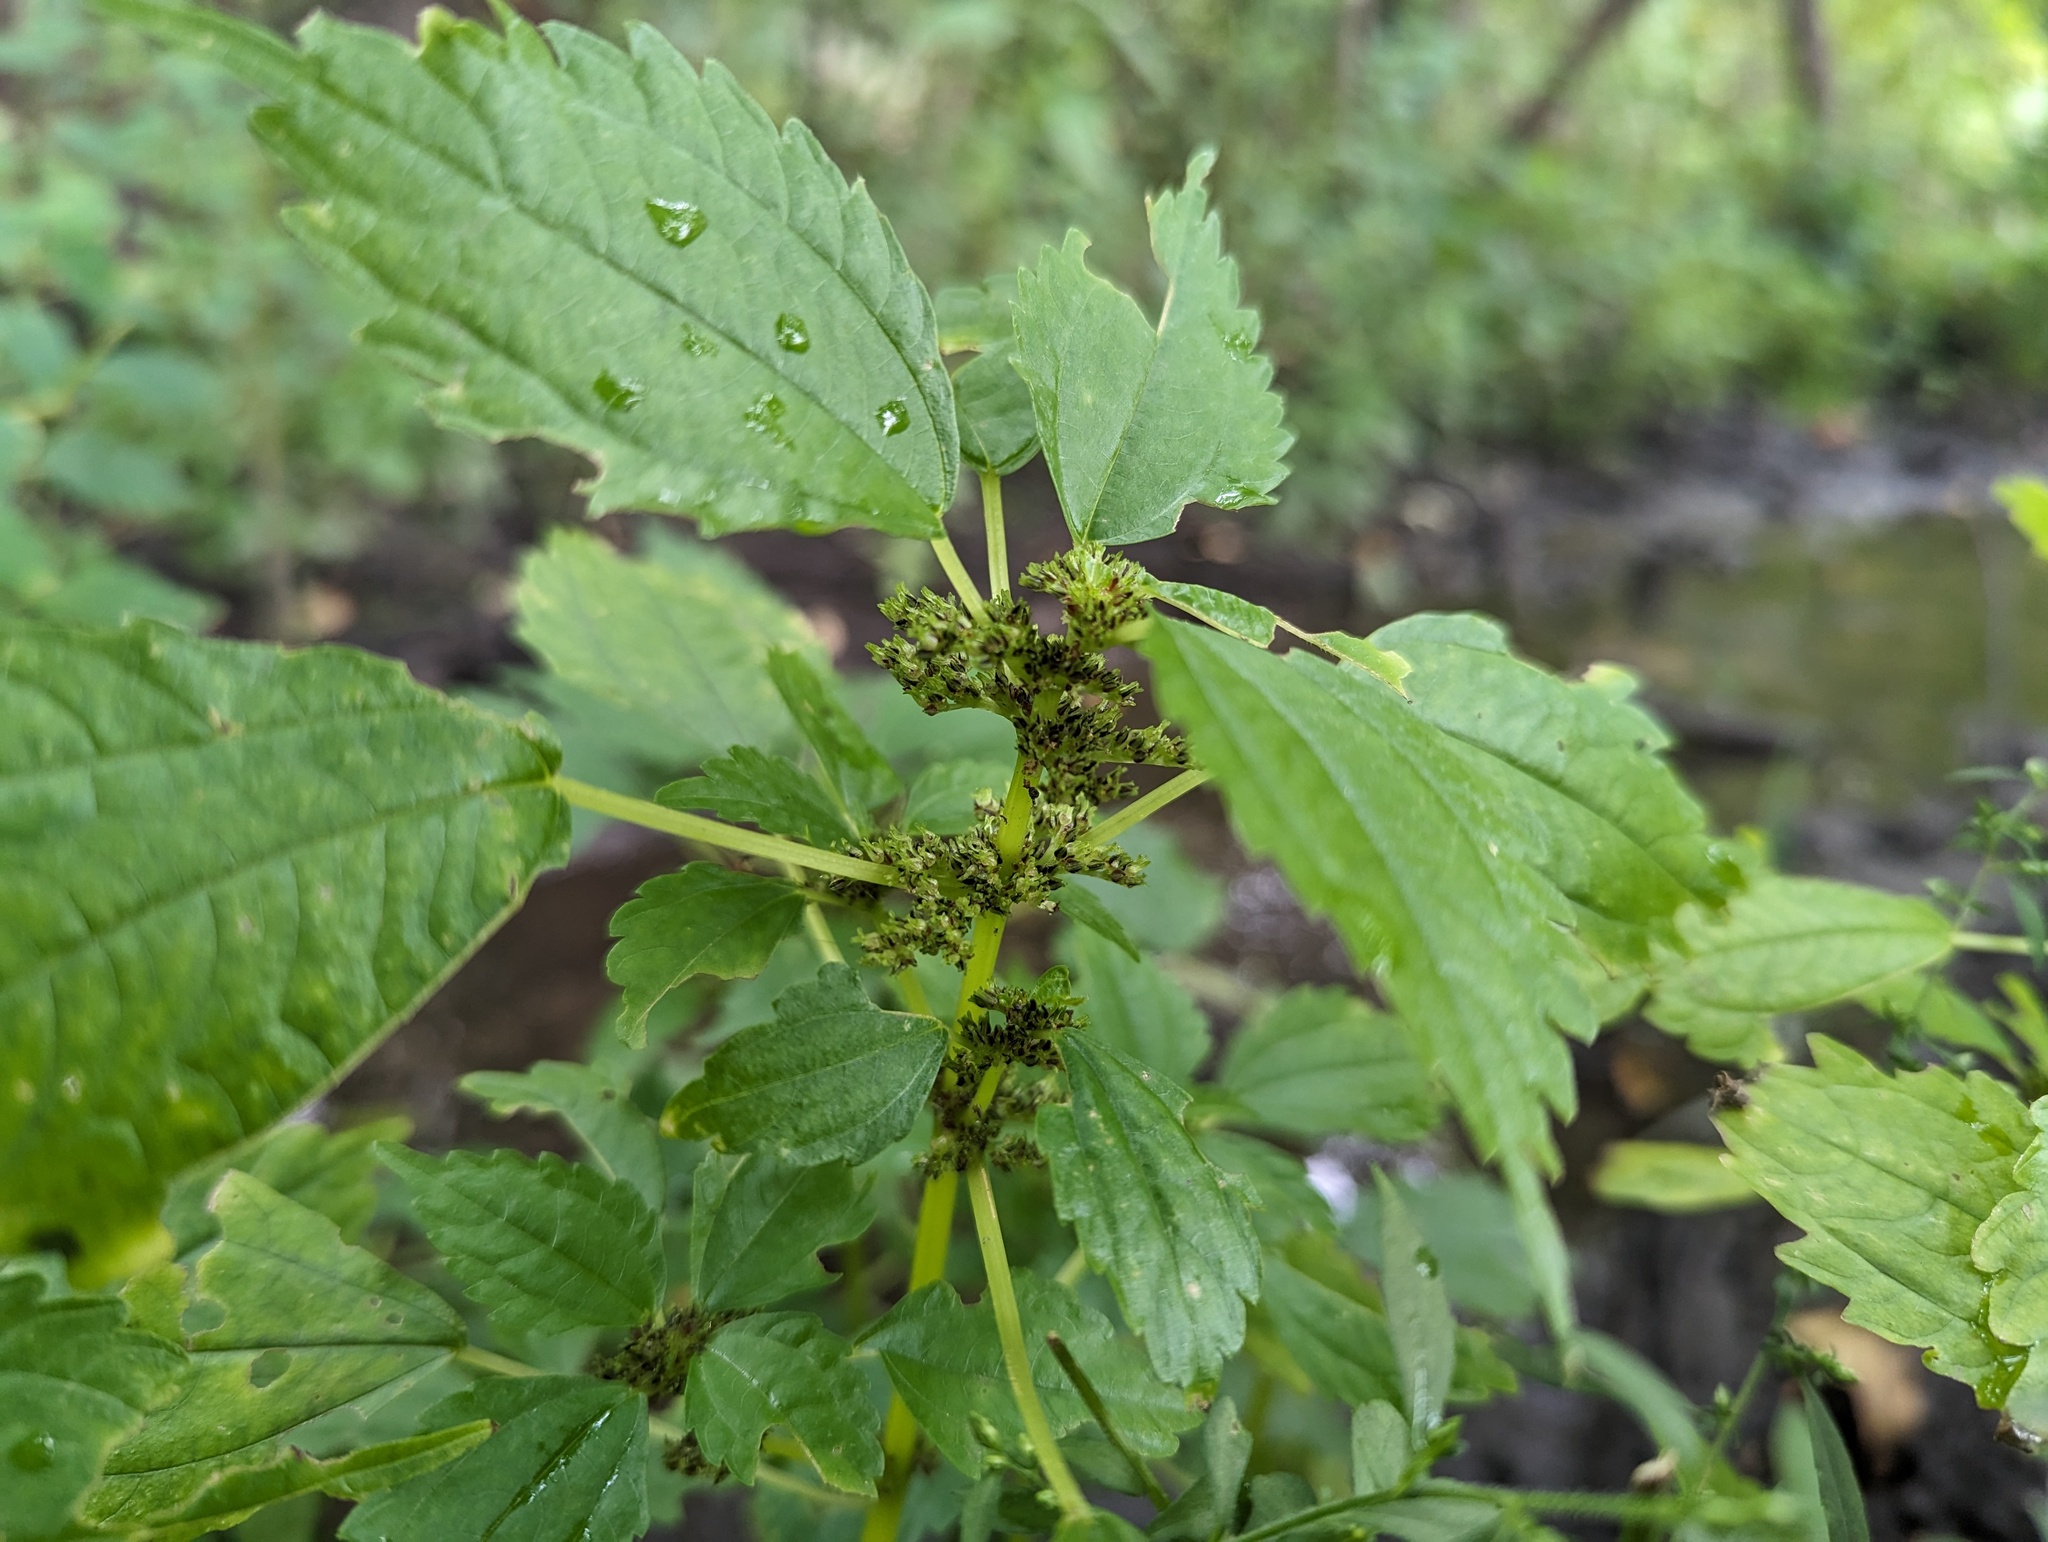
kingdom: Plantae
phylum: Tracheophyta
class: Magnoliopsida
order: Rosales
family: Urticaceae
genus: Pilea
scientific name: Pilea fontana
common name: Clearweed
